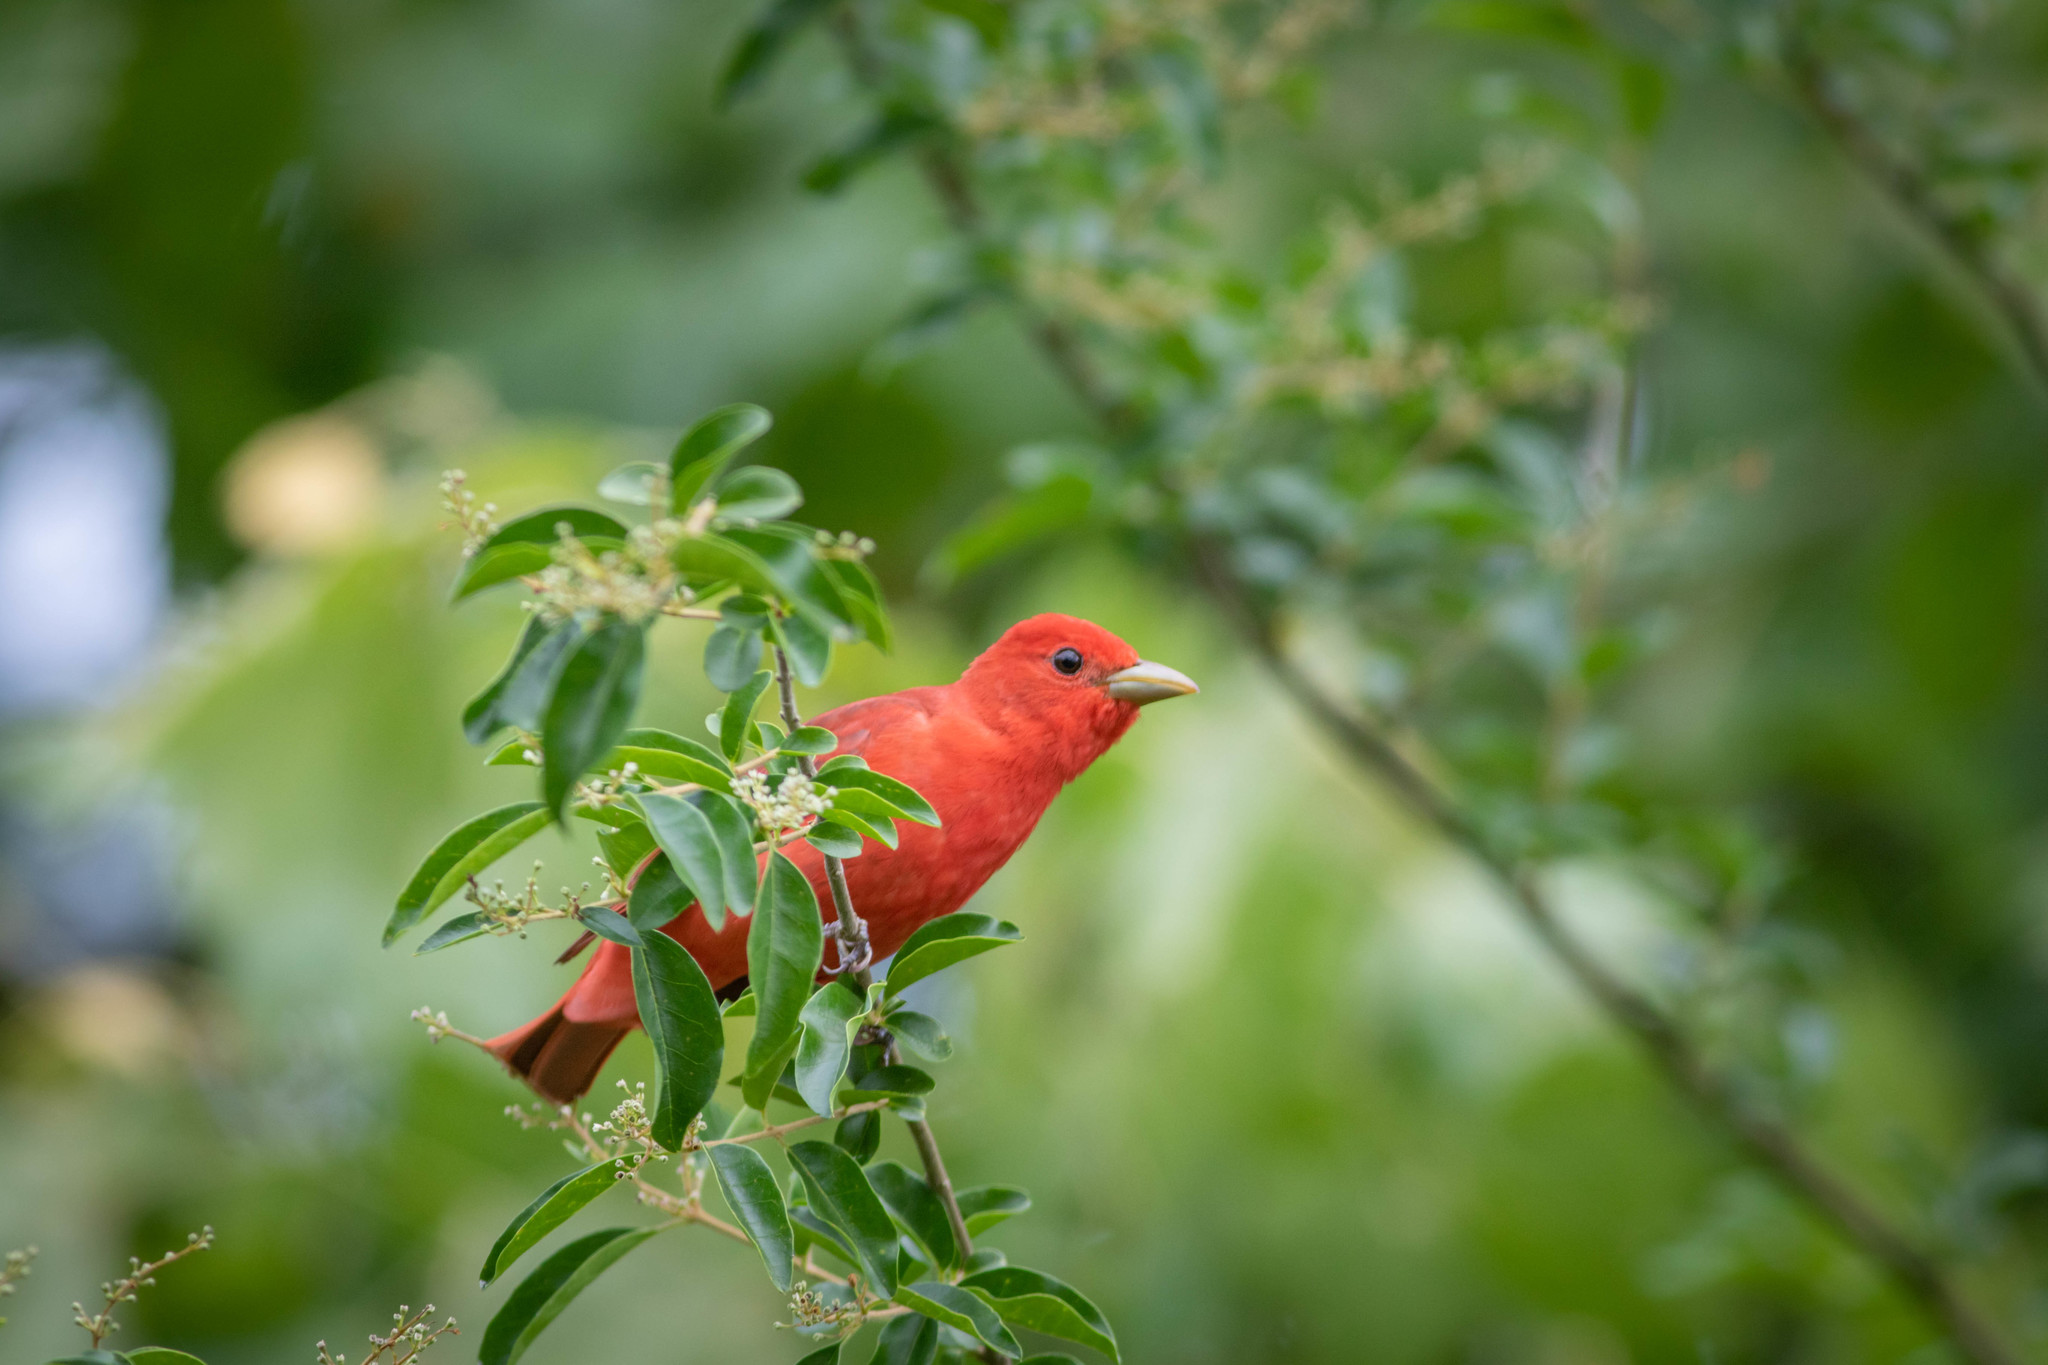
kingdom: Animalia
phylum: Chordata
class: Aves
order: Passeriformes
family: Cardinalidae
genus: Piranga
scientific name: Piranga rubra
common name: Summer tanager
